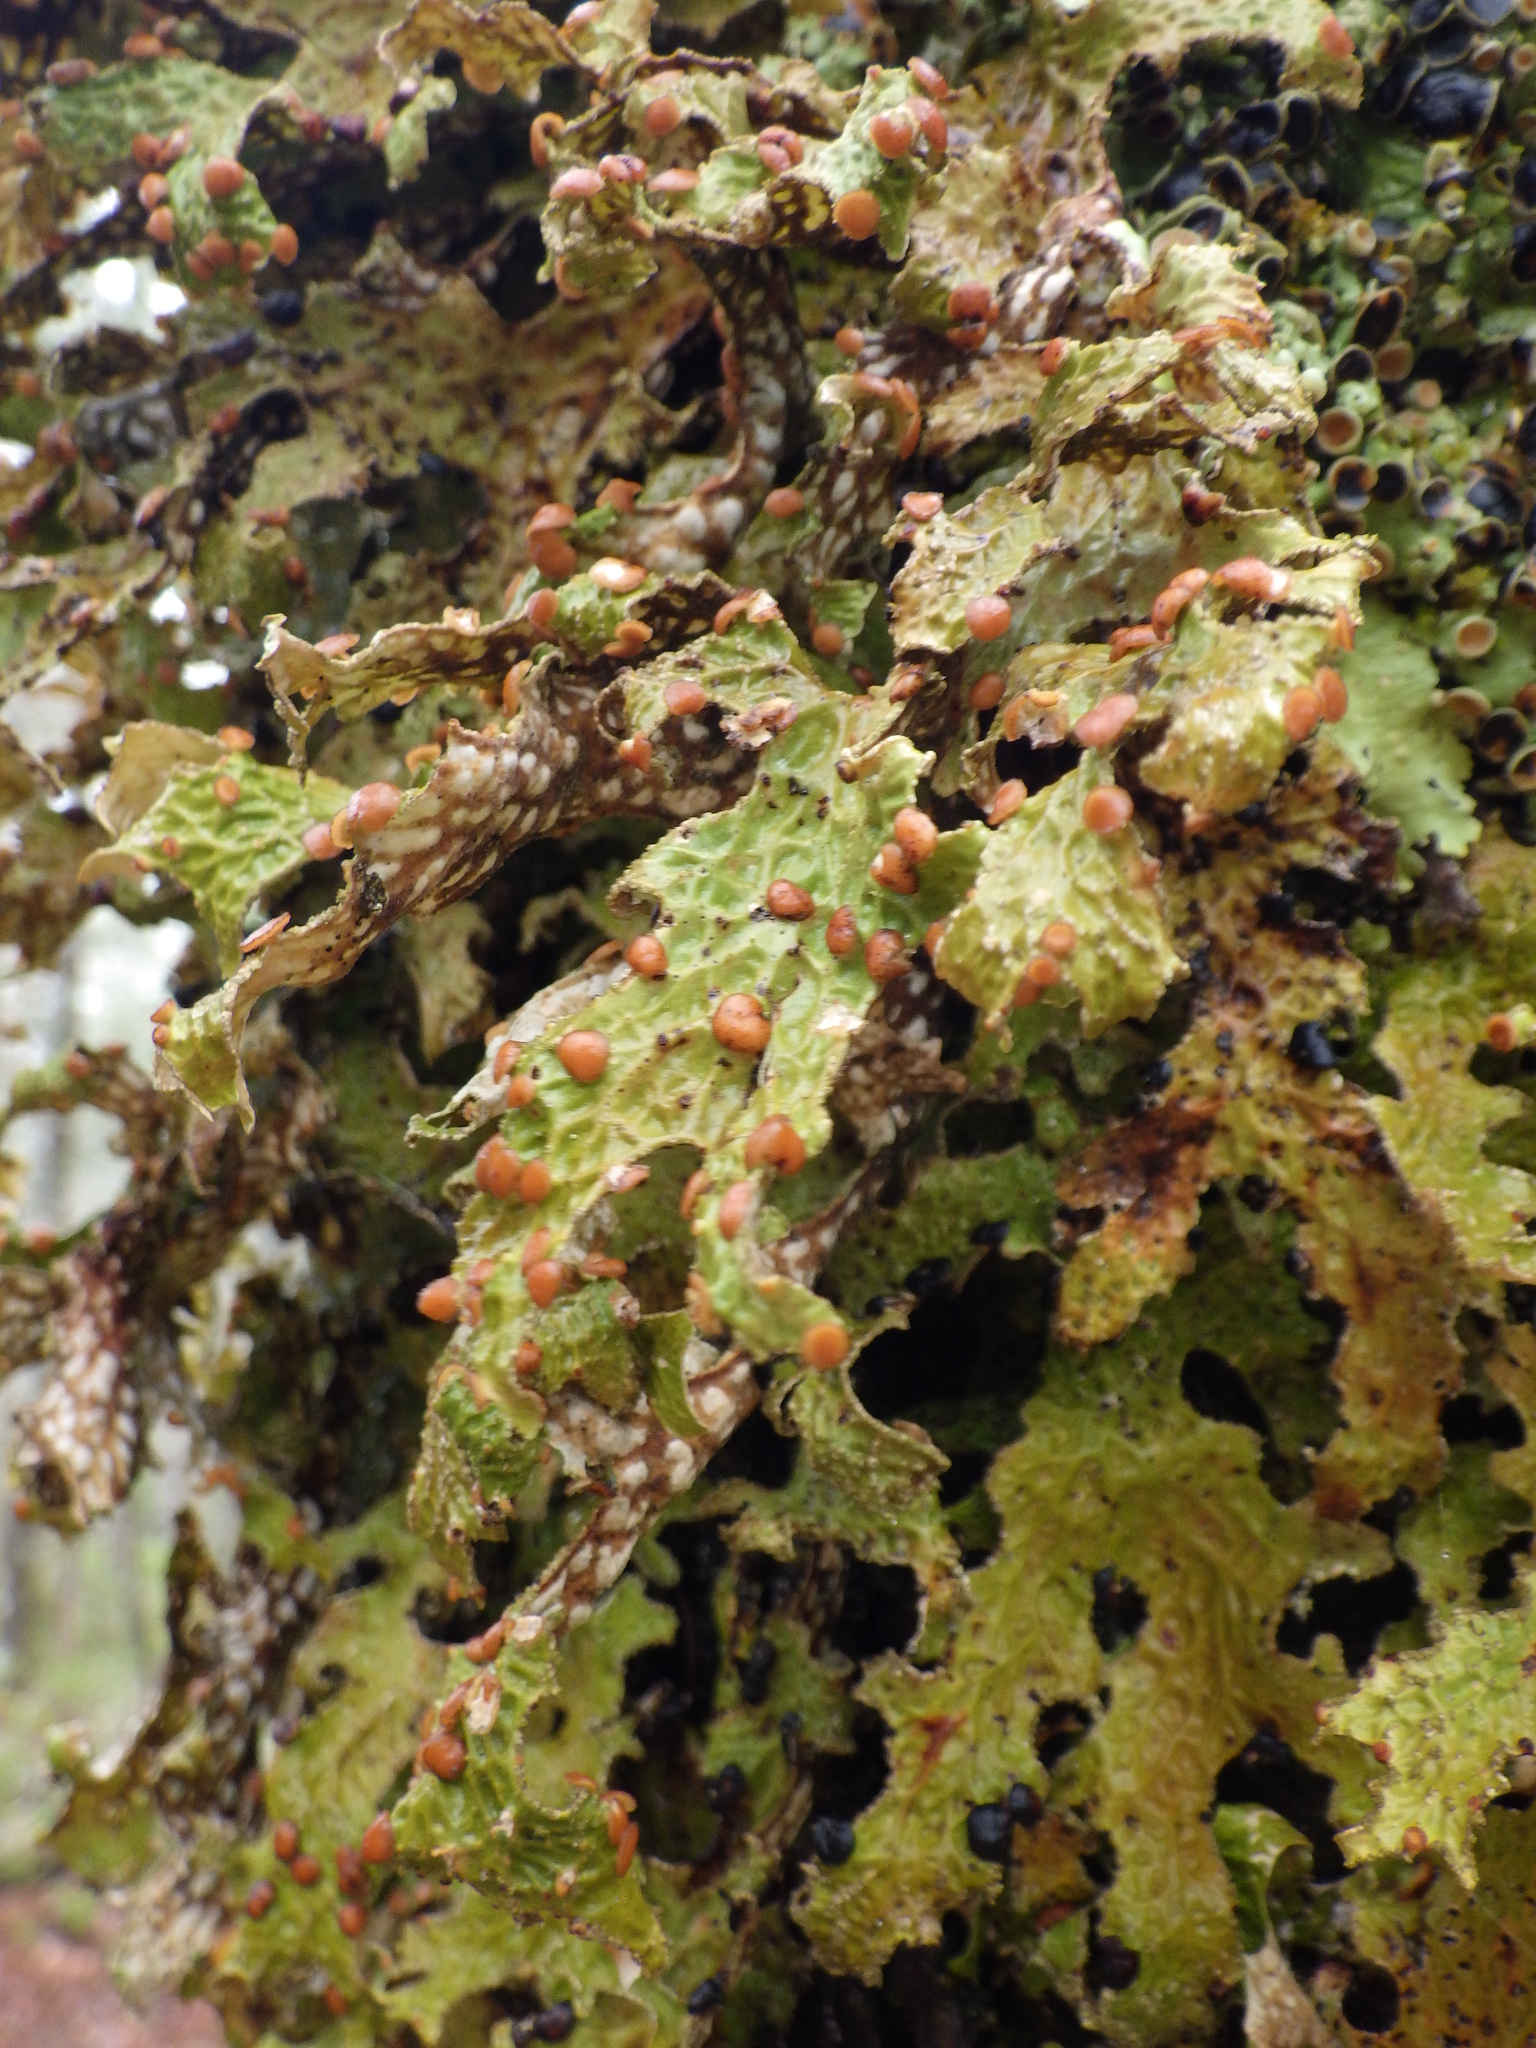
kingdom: Fungi
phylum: Ascomycota
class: Lecanoromycetes
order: Peltigerales
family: Lobariaceae
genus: Lobaria
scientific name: Lobaria pulmonaria
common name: Lungwort
